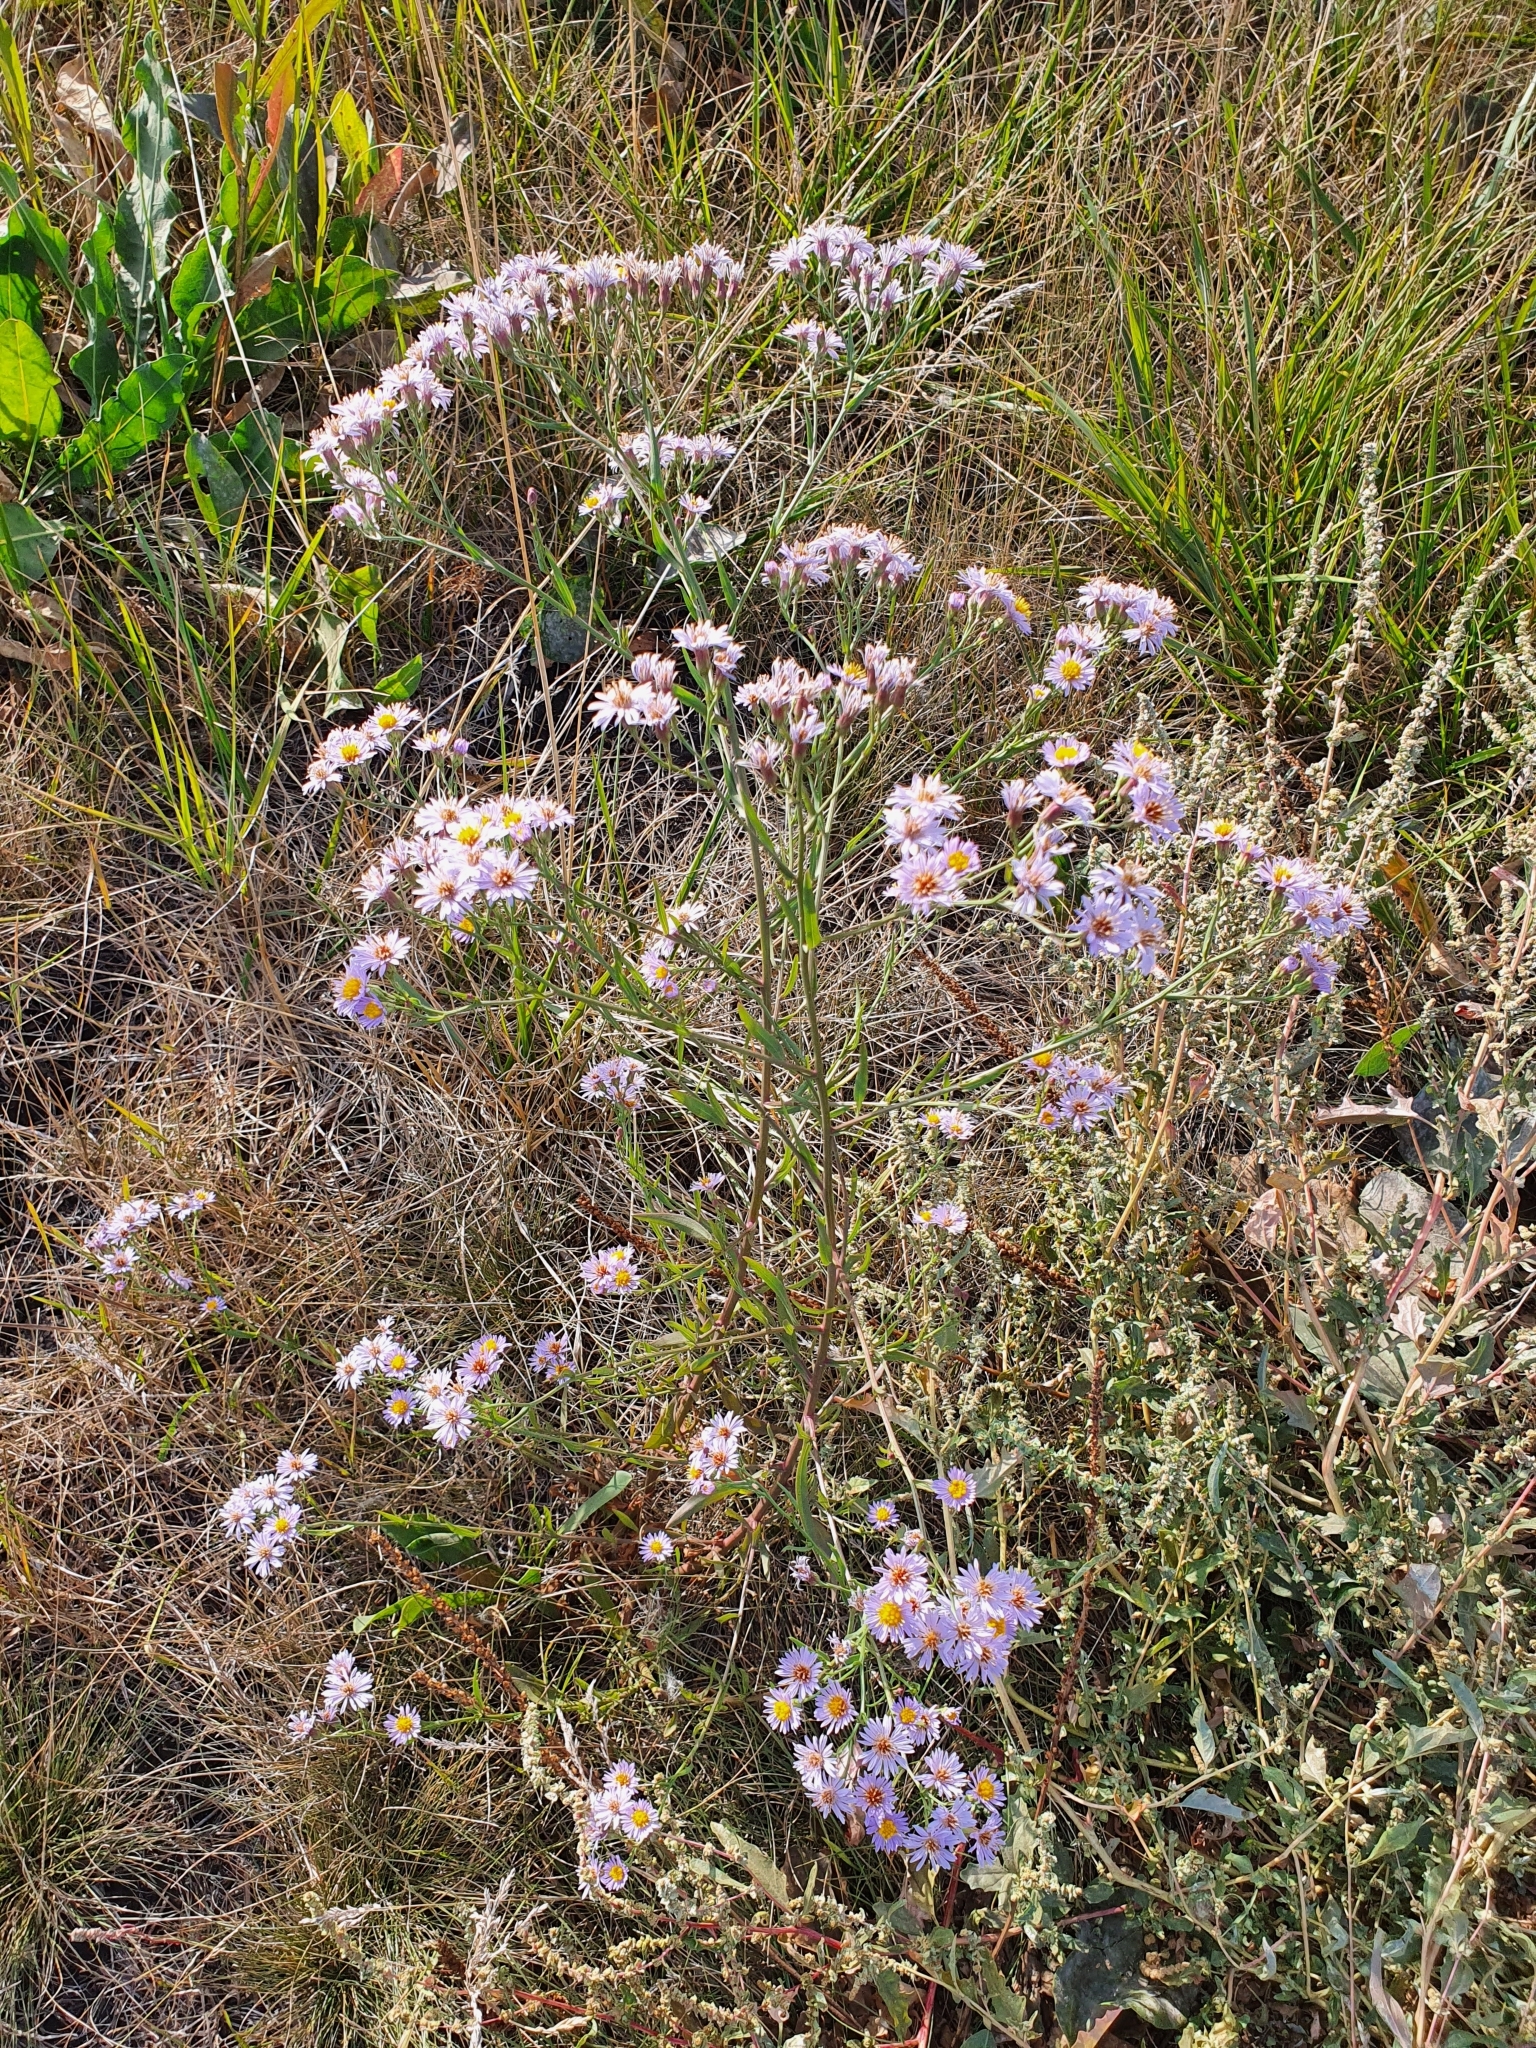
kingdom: Plantae
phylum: Tracheophyta
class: Magnoliopsida
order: Asterales
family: Asteraceae
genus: Tripolium
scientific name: Tripolium pannonicum
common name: Sea aster
